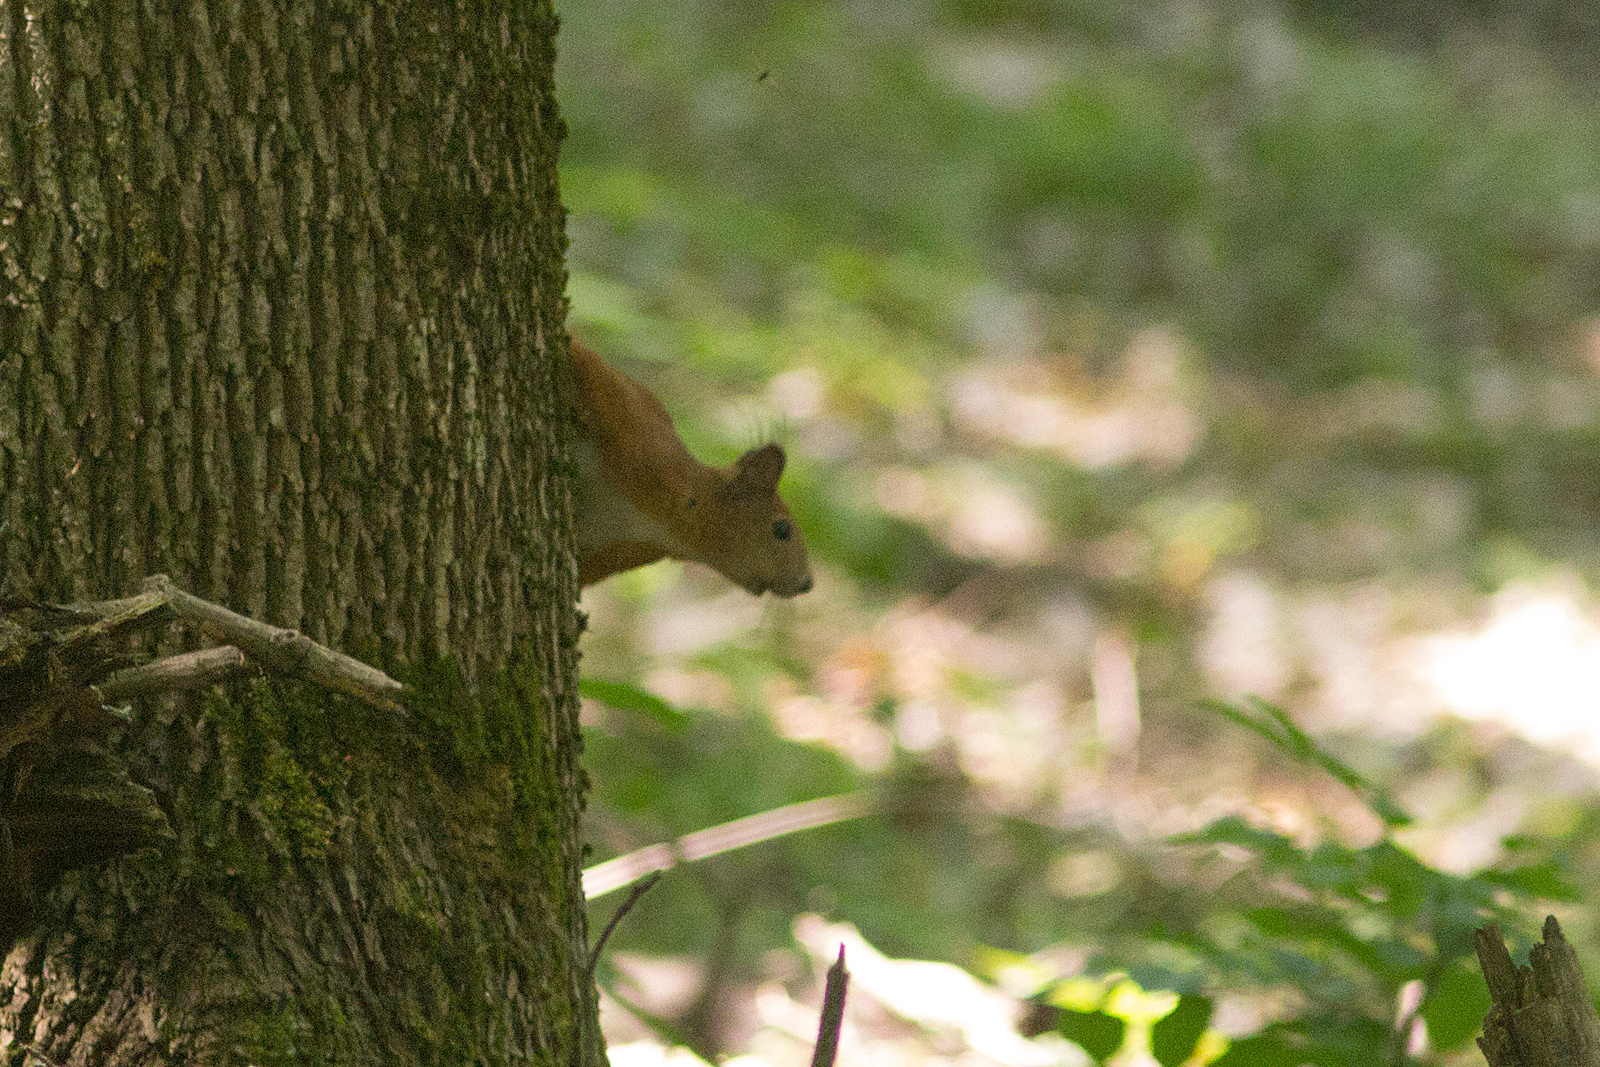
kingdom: Animalia
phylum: Chordata
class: Mammalia
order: Rodentia
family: Sciuridae
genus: Sciurus
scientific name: Sciurus vulgaris
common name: Eurasian red squirrel
